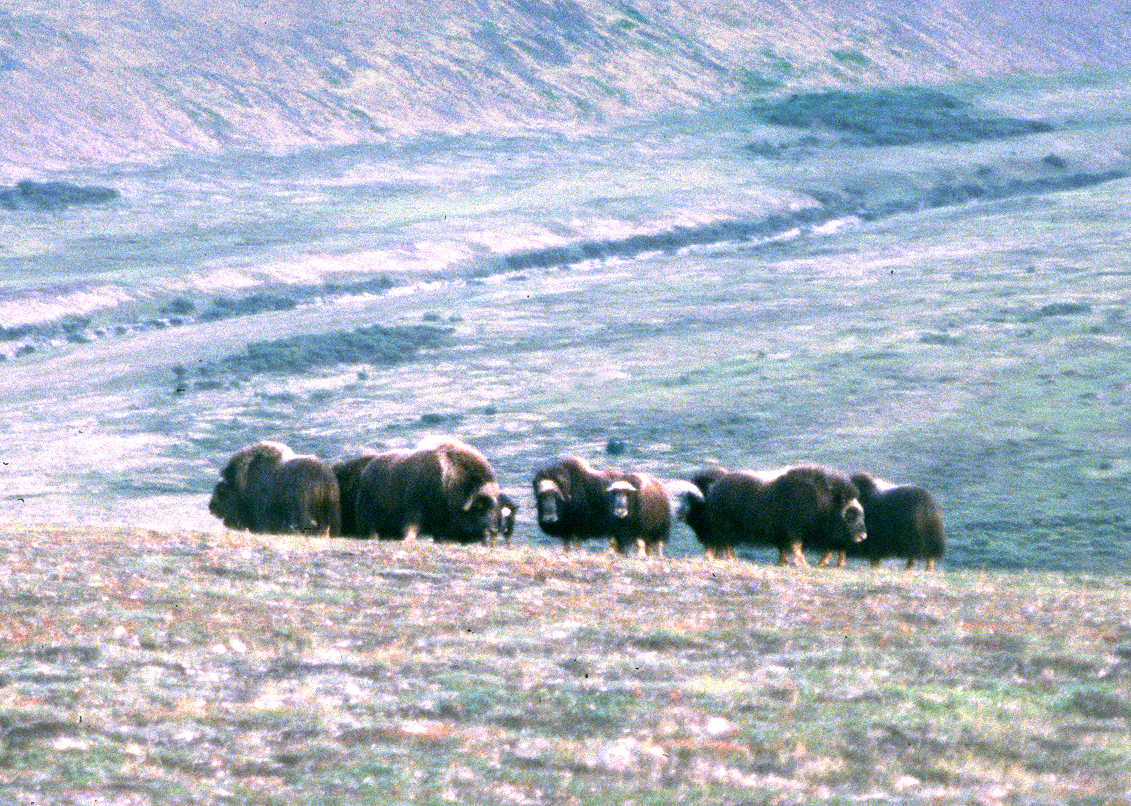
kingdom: Animalia
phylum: Chordata
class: Mammalia
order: Artiodactyla
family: Bovidae
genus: Ovibos
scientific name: Ovibos moschatus
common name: Muskox
